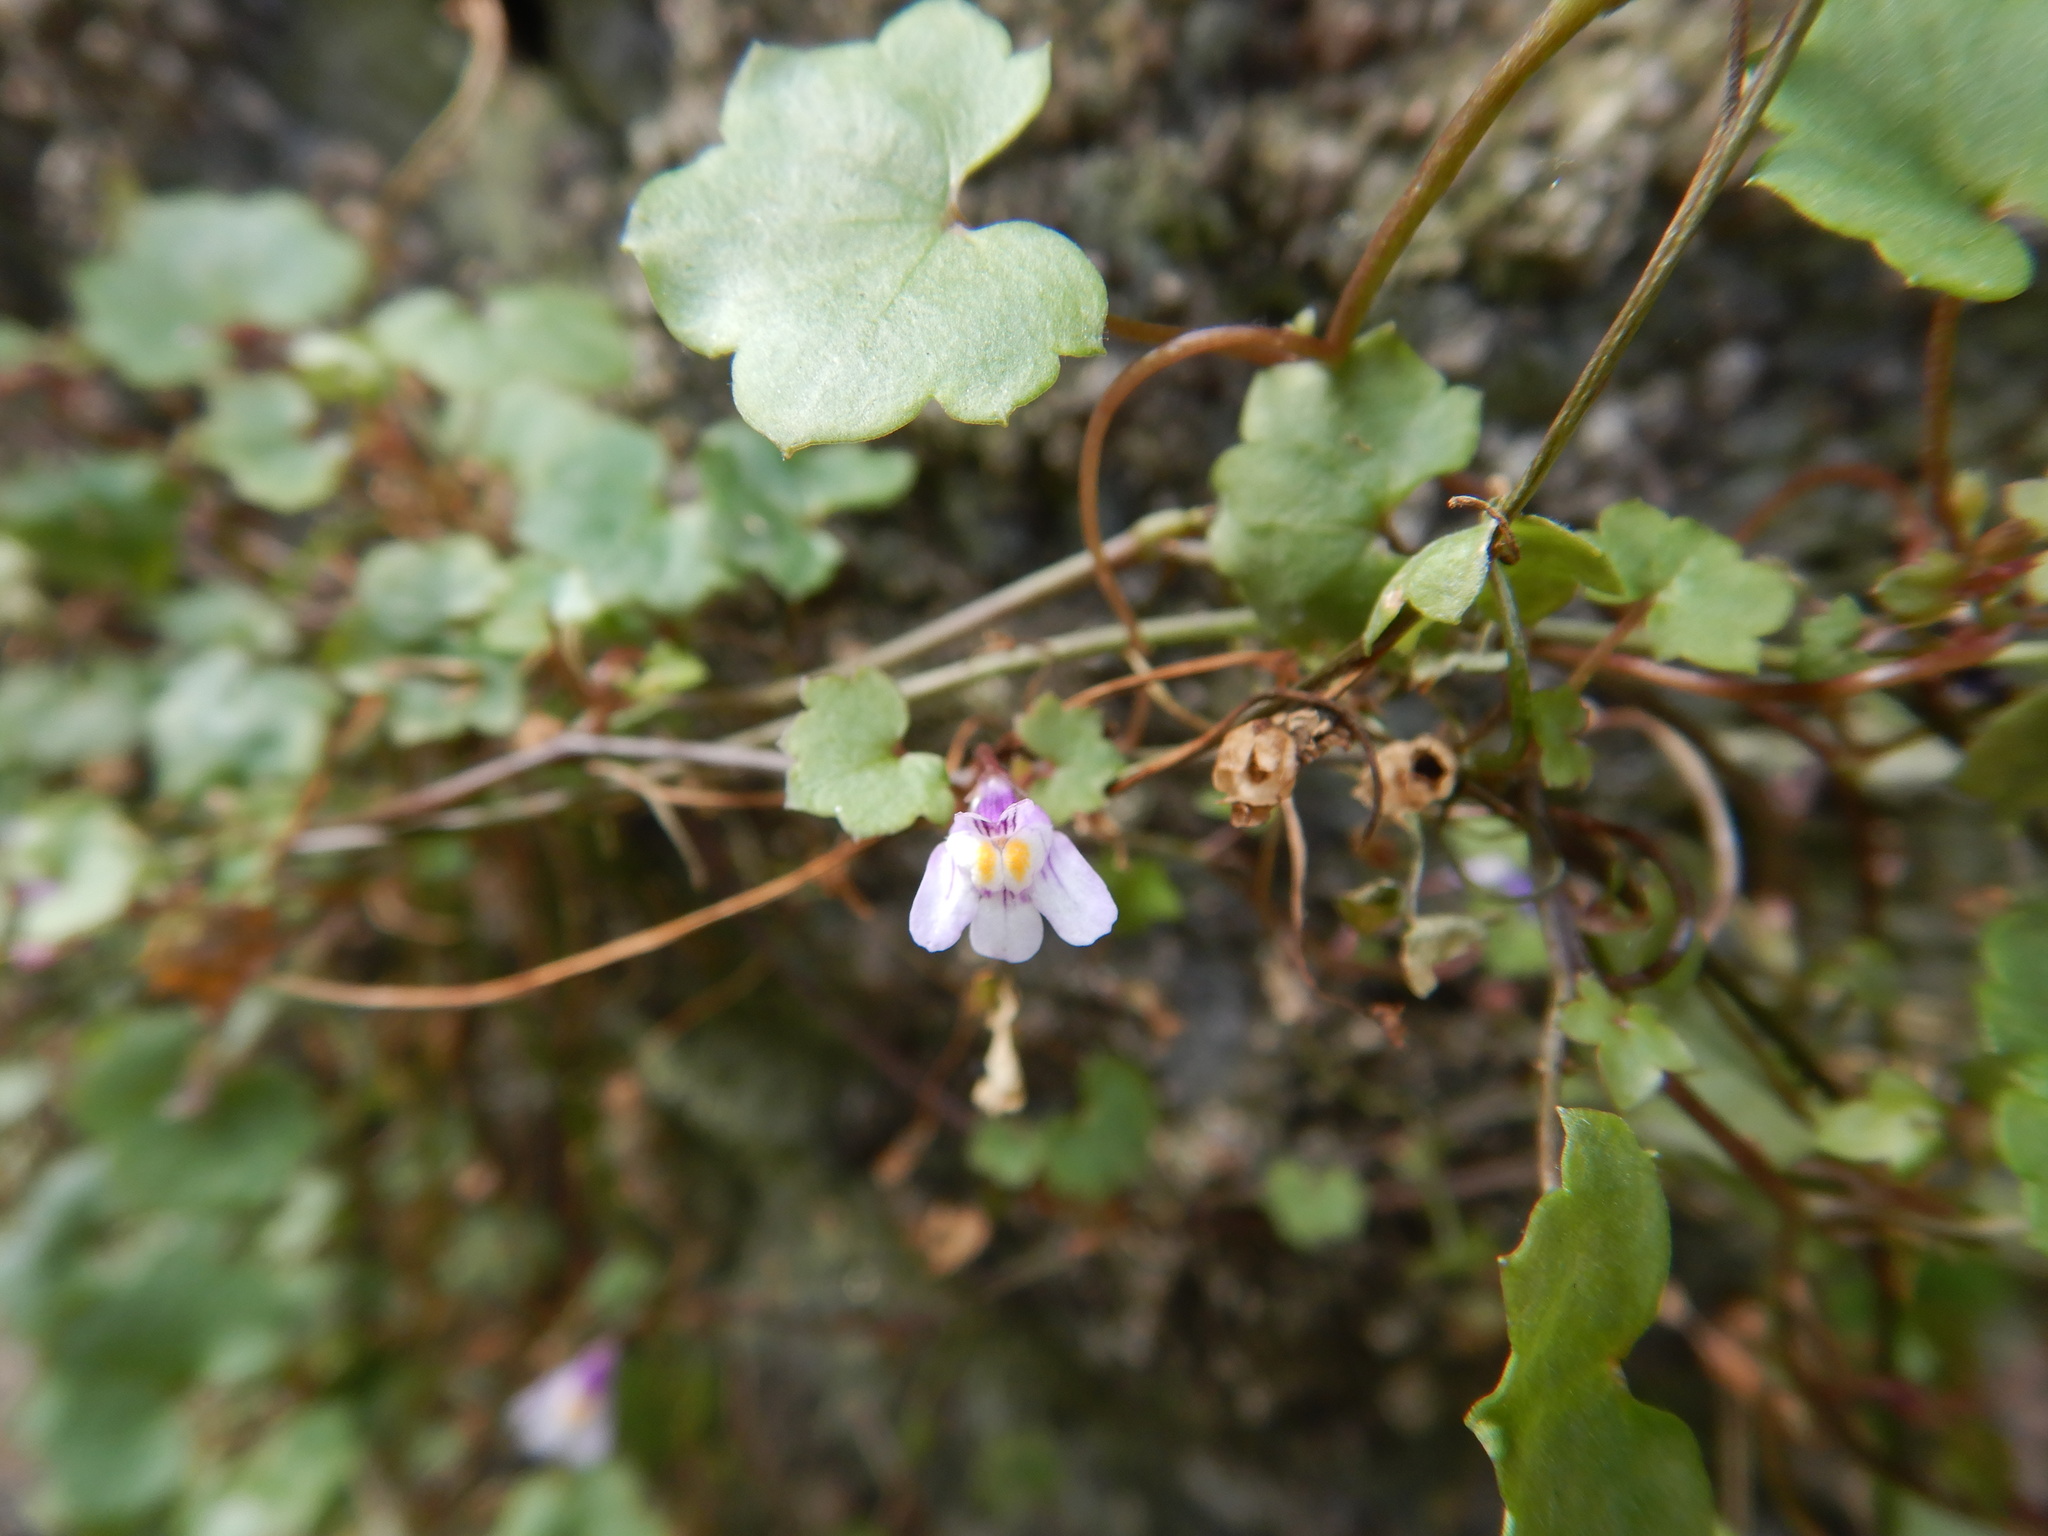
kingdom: Plantae
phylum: Tracheophyta
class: Magnoliopsida
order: Lamiales
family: Plantaginaceae
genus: Cymbalaria
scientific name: Cymbalaria muralis
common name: Ivy-leaved toadflax
